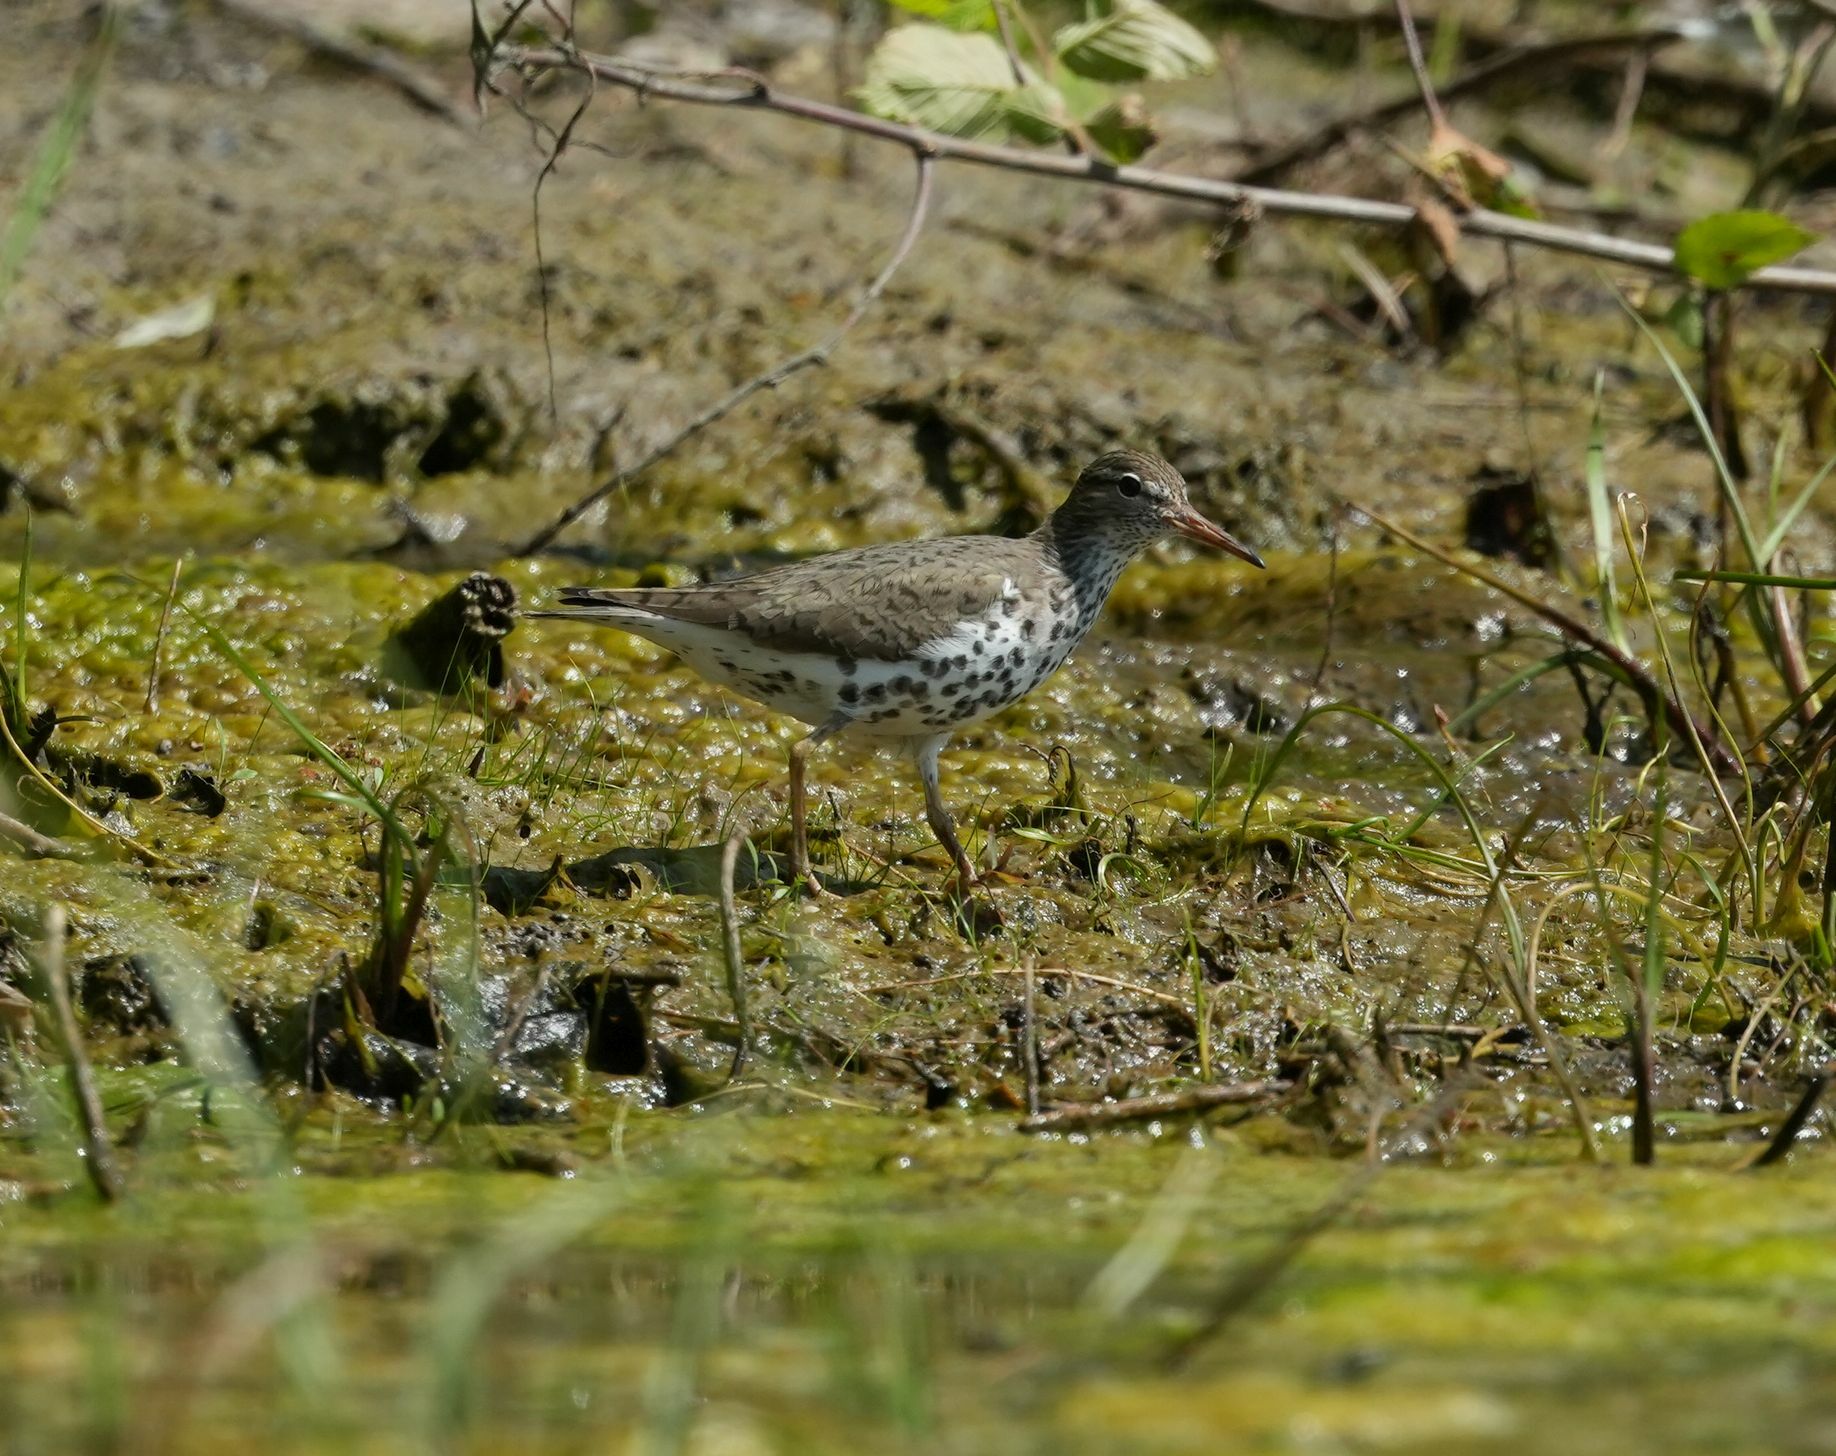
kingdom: Animalia
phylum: Chordata
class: Aves
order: Charadriiformes
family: Scolopacidae
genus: Actitis
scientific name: Actitis macularius
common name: Spotted sandpiper
